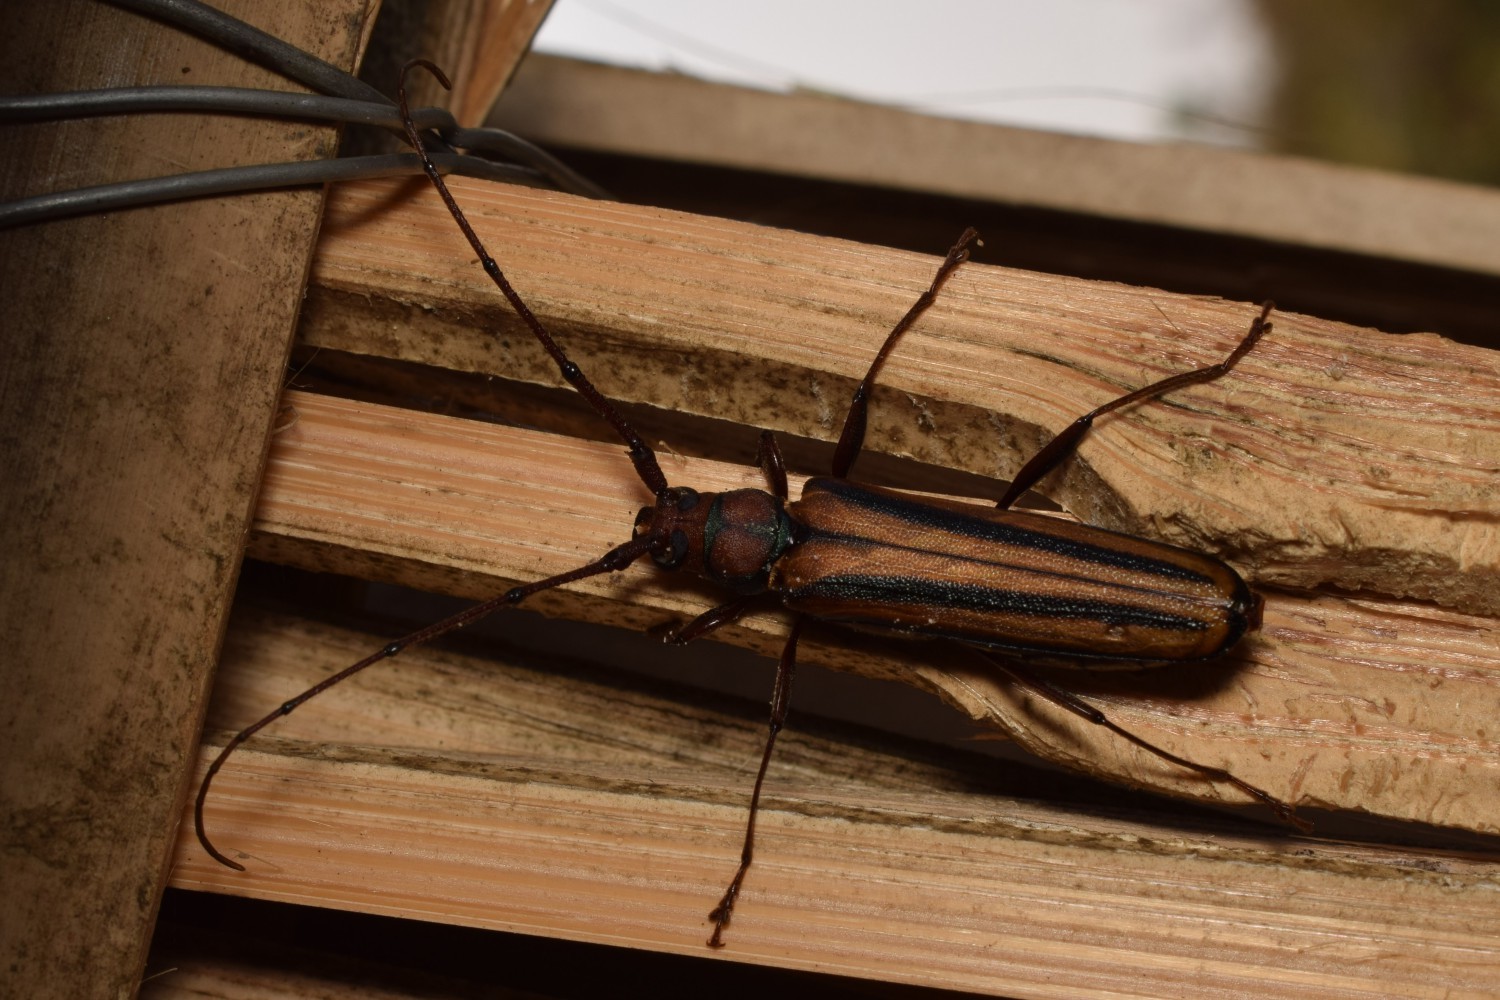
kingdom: Animalia
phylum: Arthropoda
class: Insecta
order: Coleoptera
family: Cerambycidae
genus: Xystrocera
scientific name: Xystrocera globosa
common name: Peach-tree longhorn
